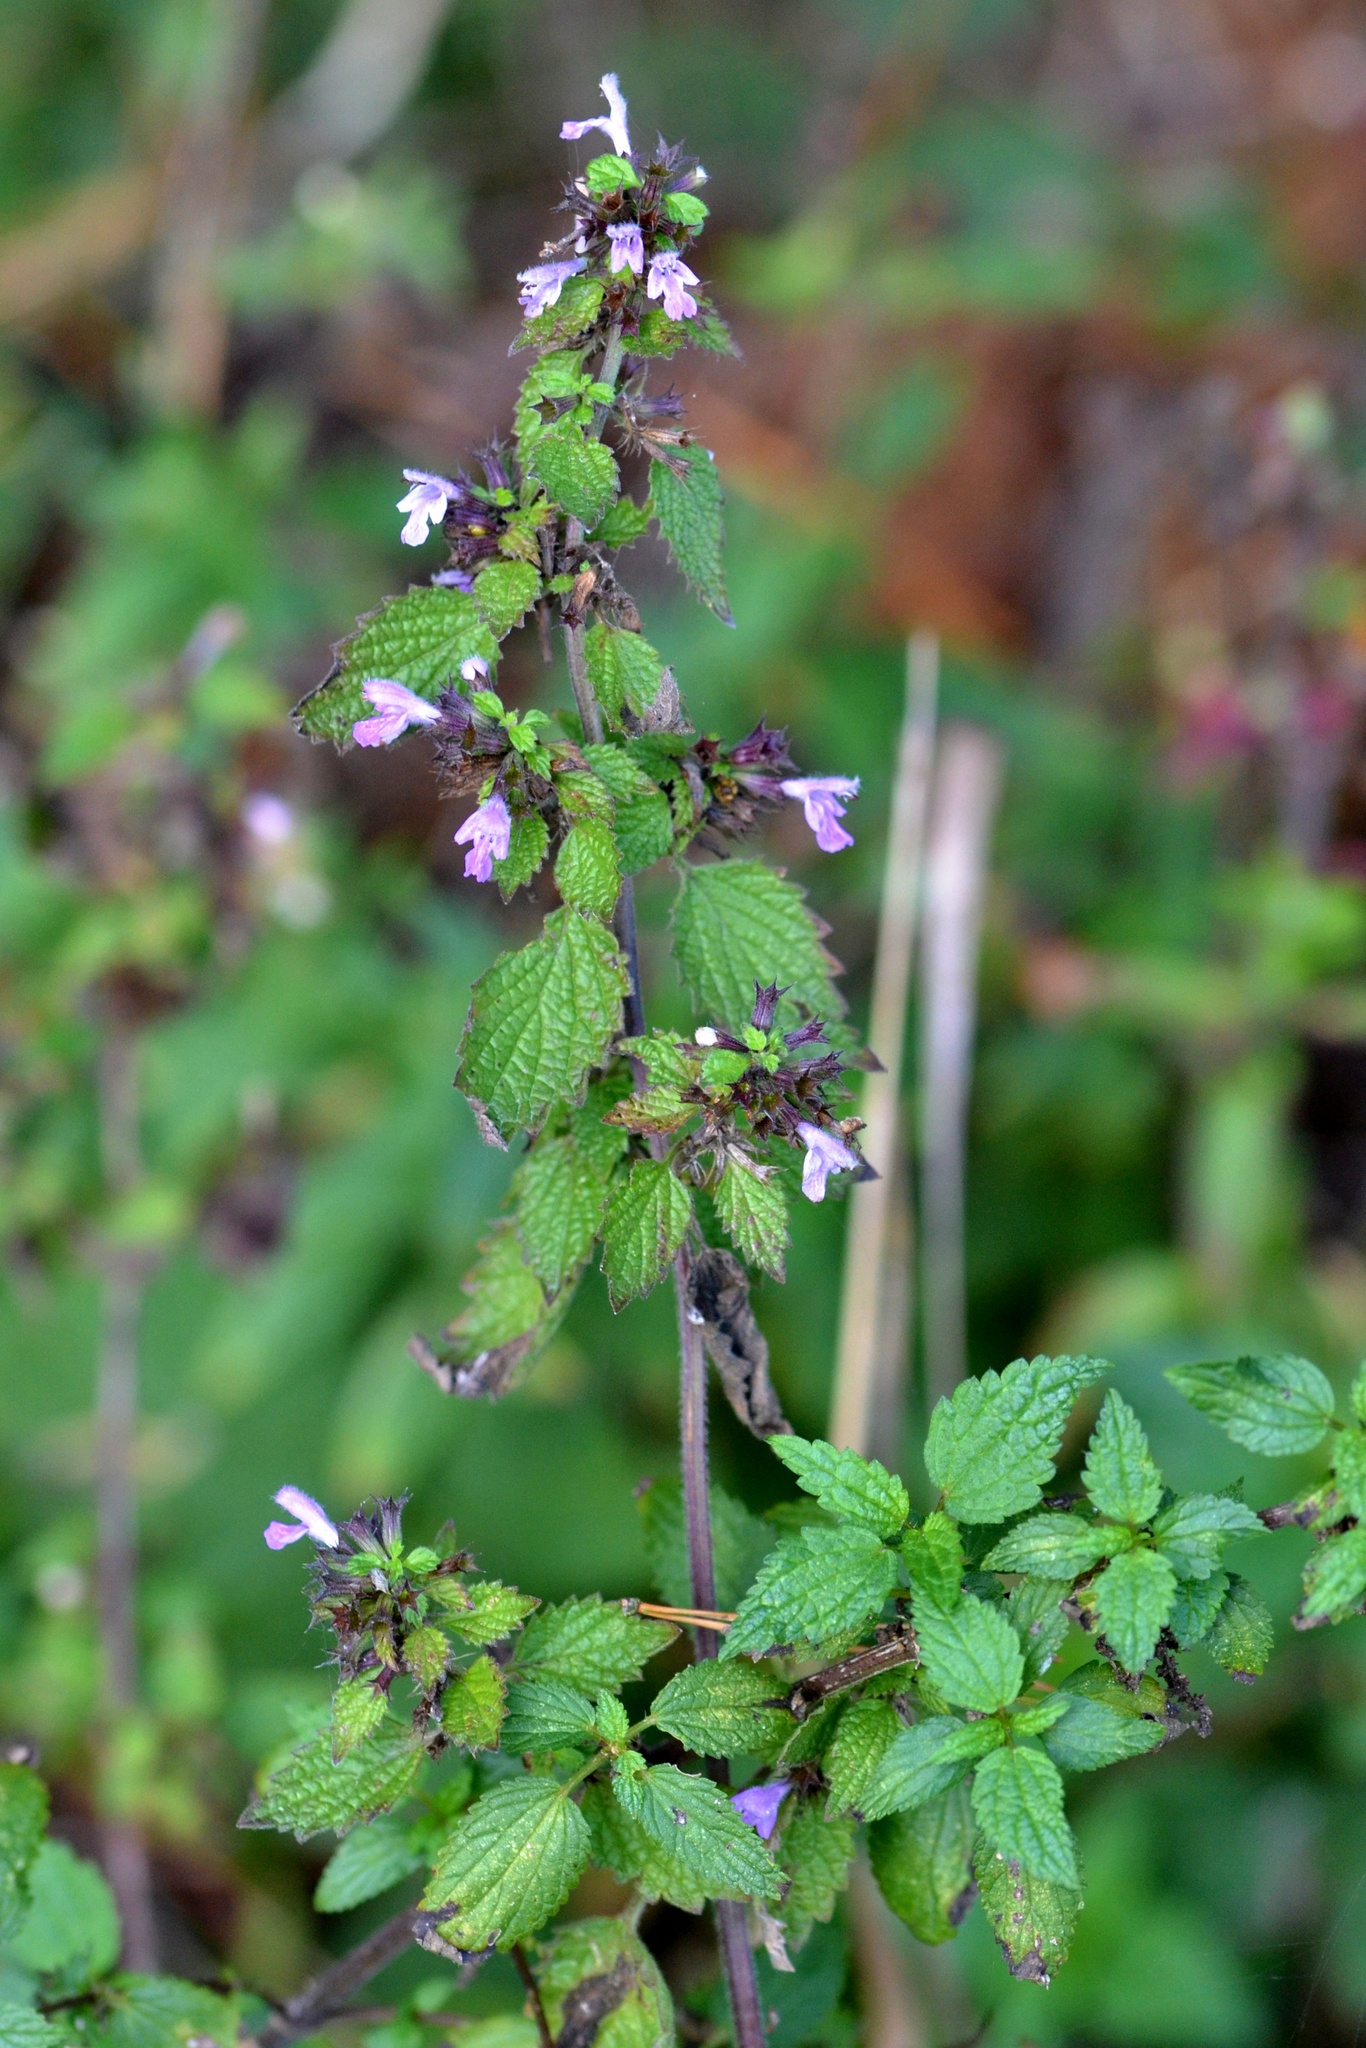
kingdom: Plantae
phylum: Tracheophyta
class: Magnoliopsida
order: Lamiales
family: Lamiaceae
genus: Ballota
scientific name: Ballota nigra
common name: Black horehound
